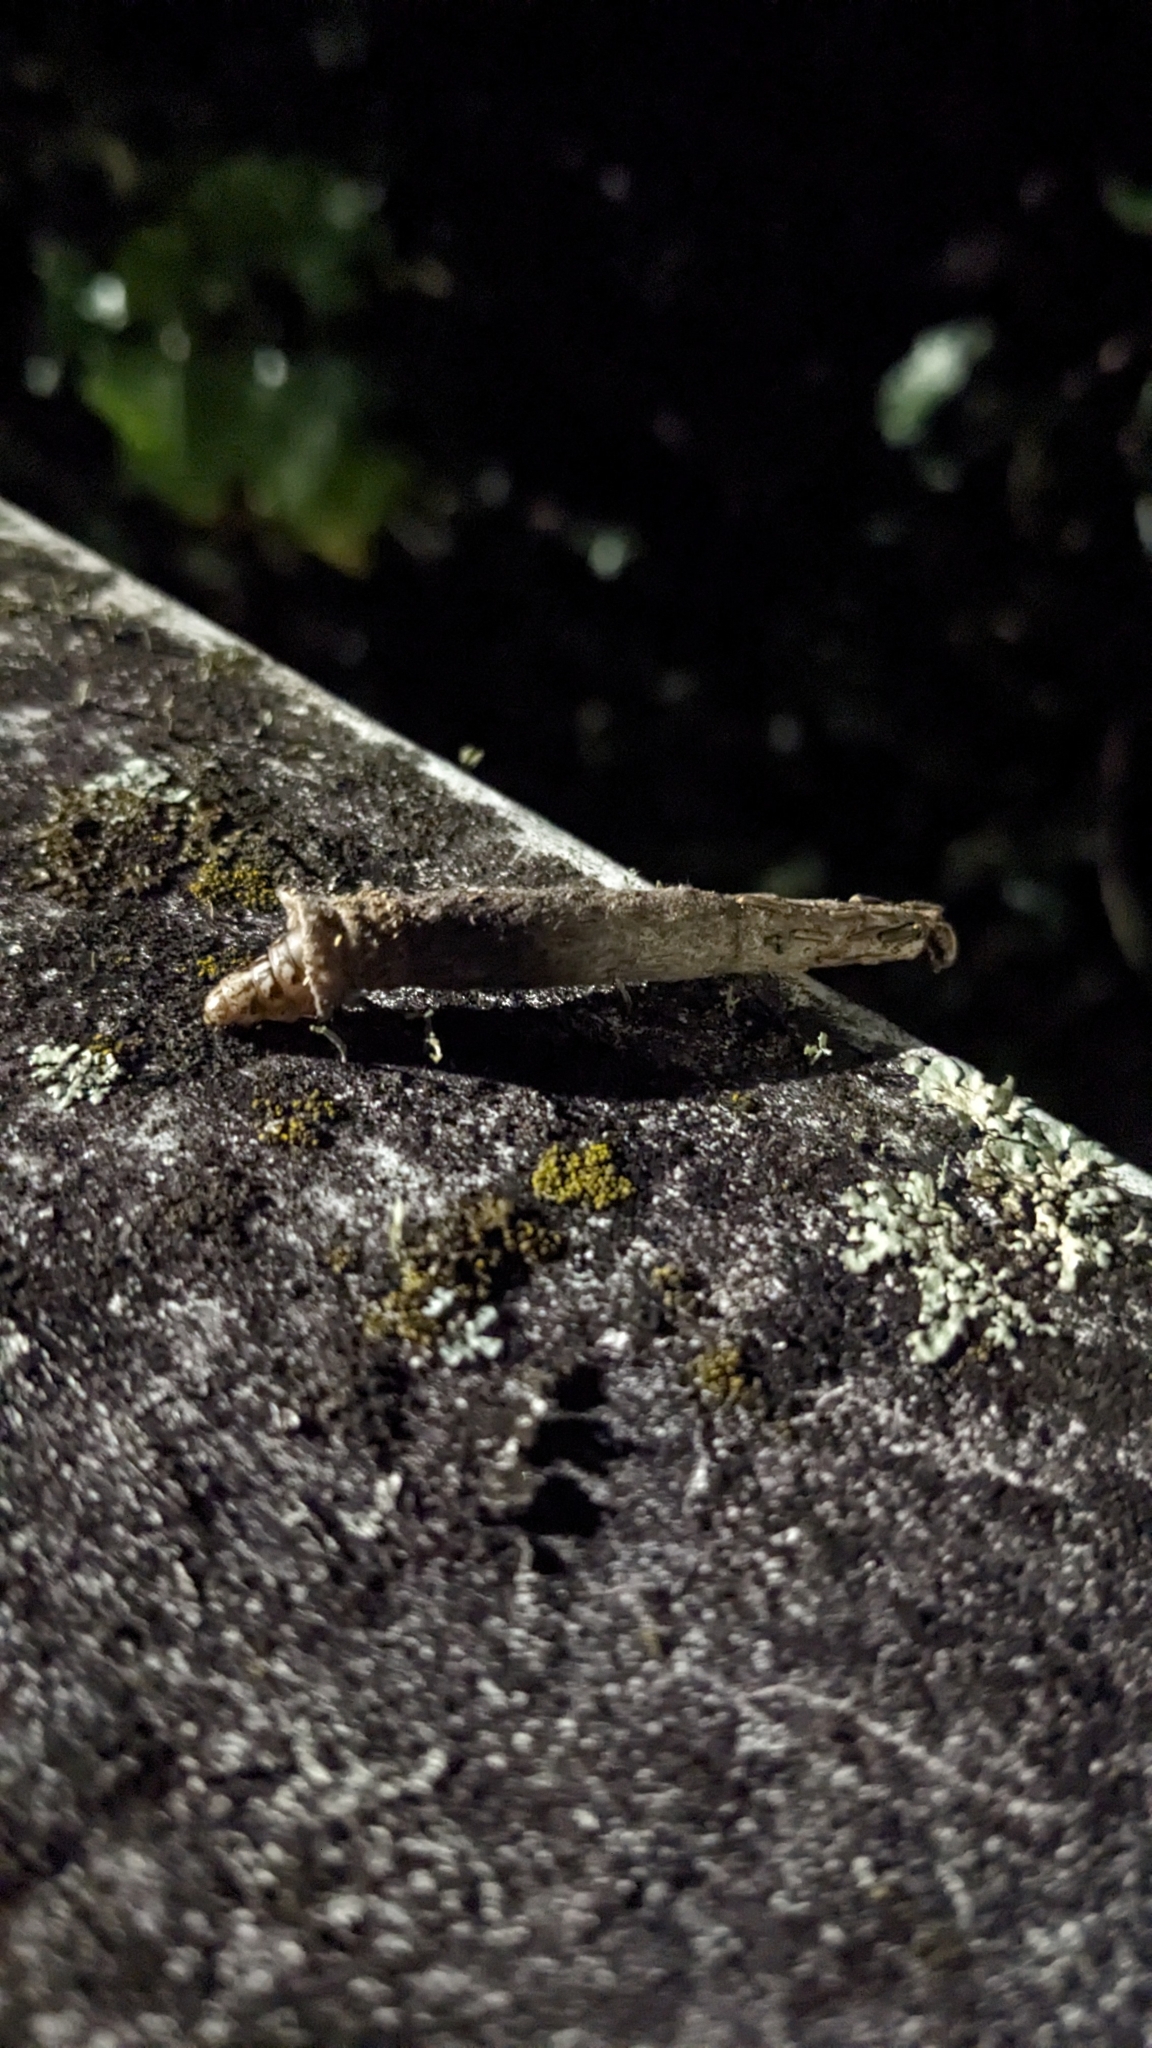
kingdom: Animalia
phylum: Arthropoda
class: Insecta
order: Lepidoptera
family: Psychidae
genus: Liothula
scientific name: Liothula omnivora
